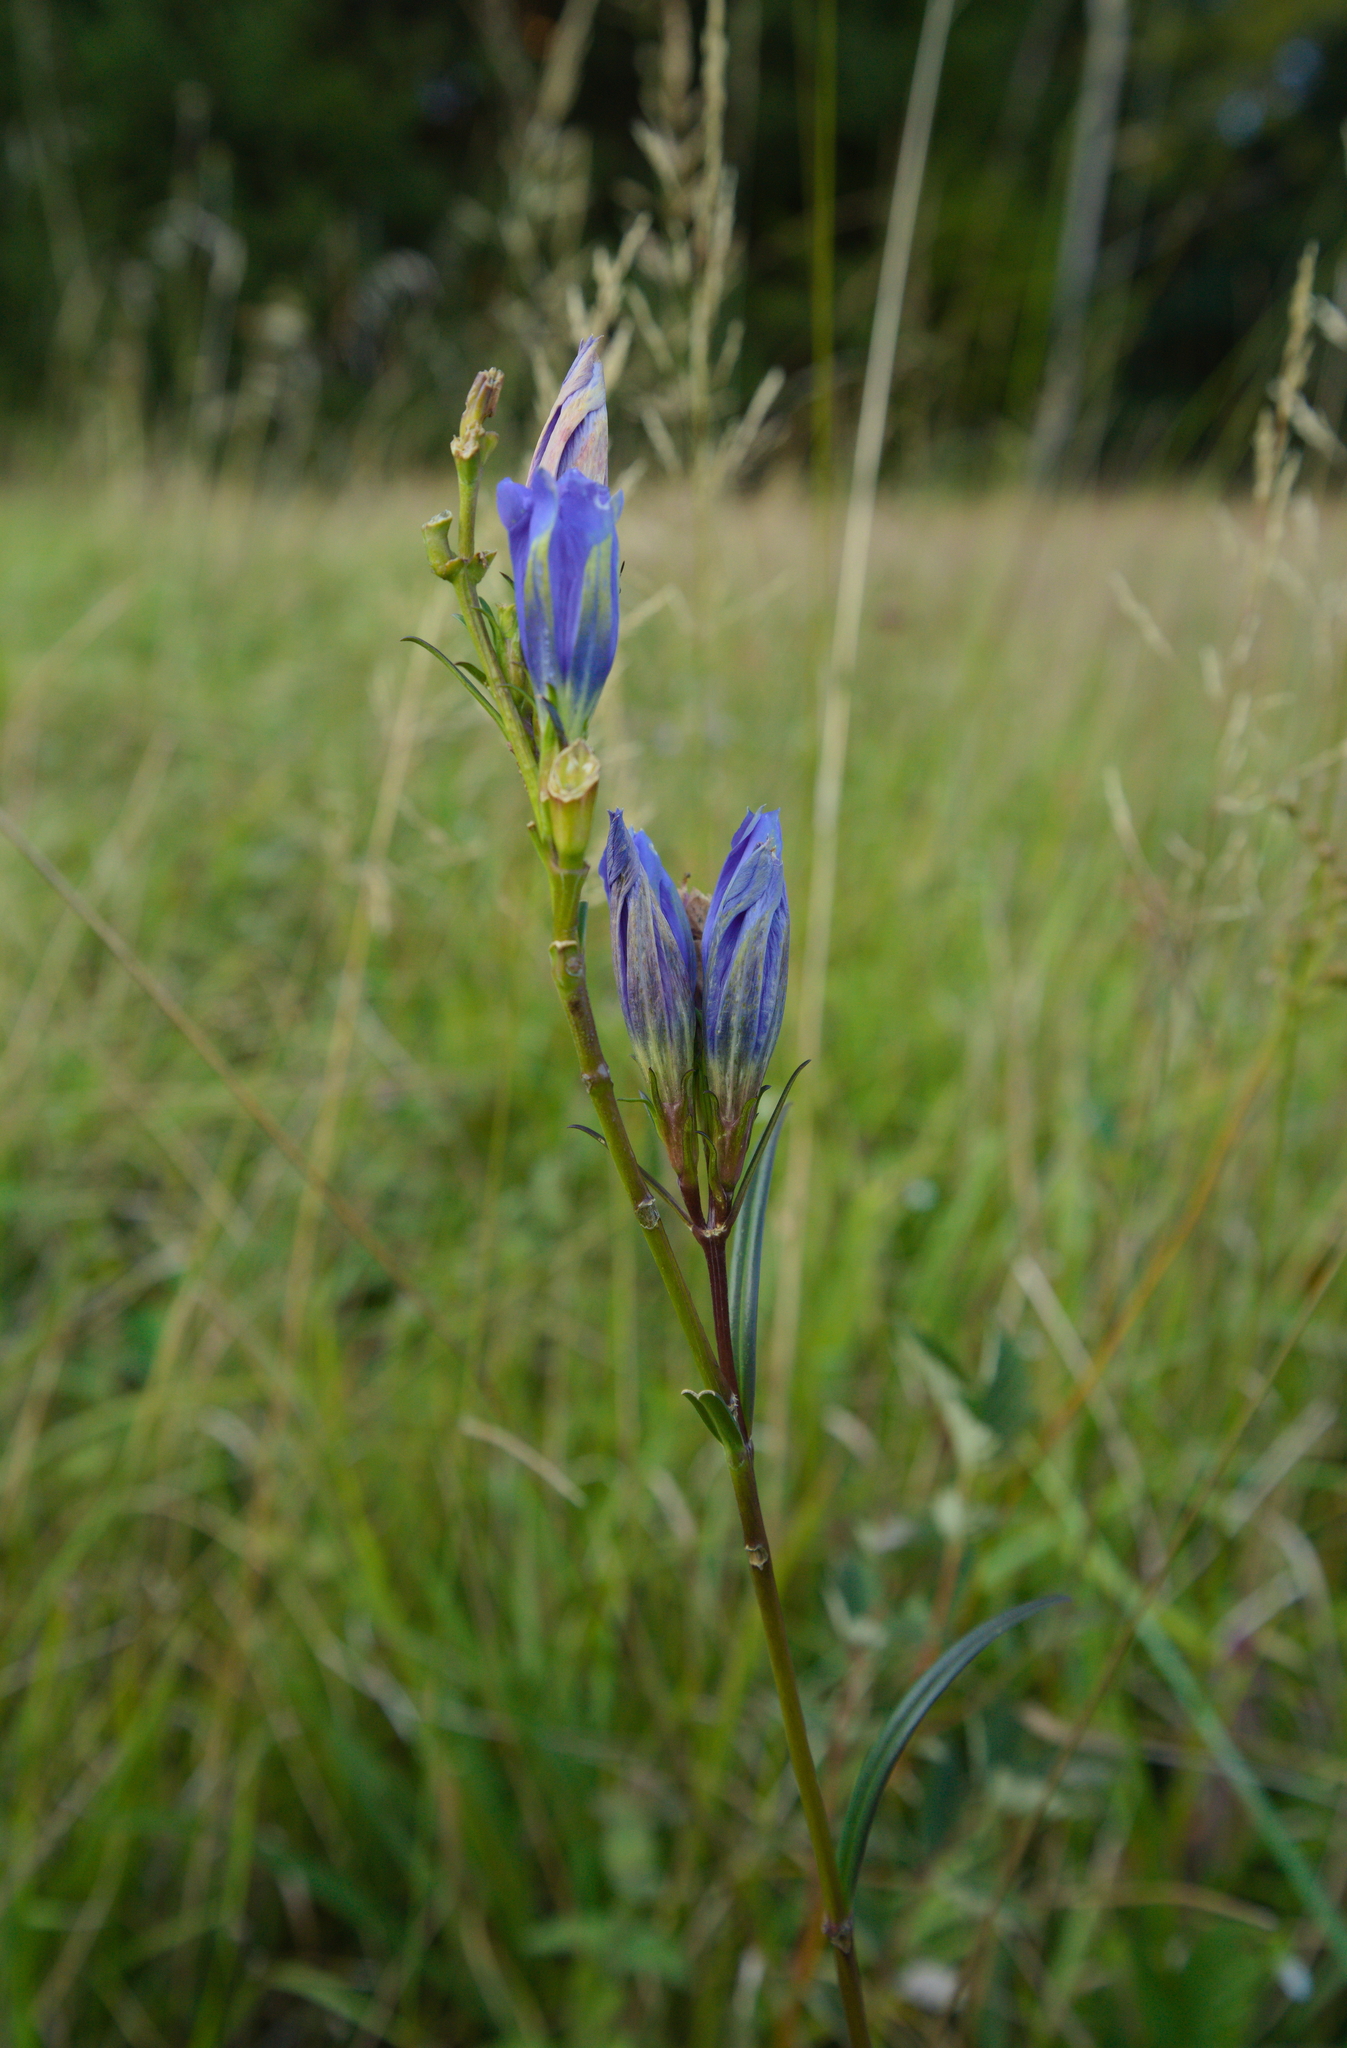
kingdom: Plantae
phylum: Tracheophyta
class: Magnoliopsida
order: Gentianales
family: Gentianaceae
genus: Gentiana
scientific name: Gentiana pneumonanthe
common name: Marsh gentian
